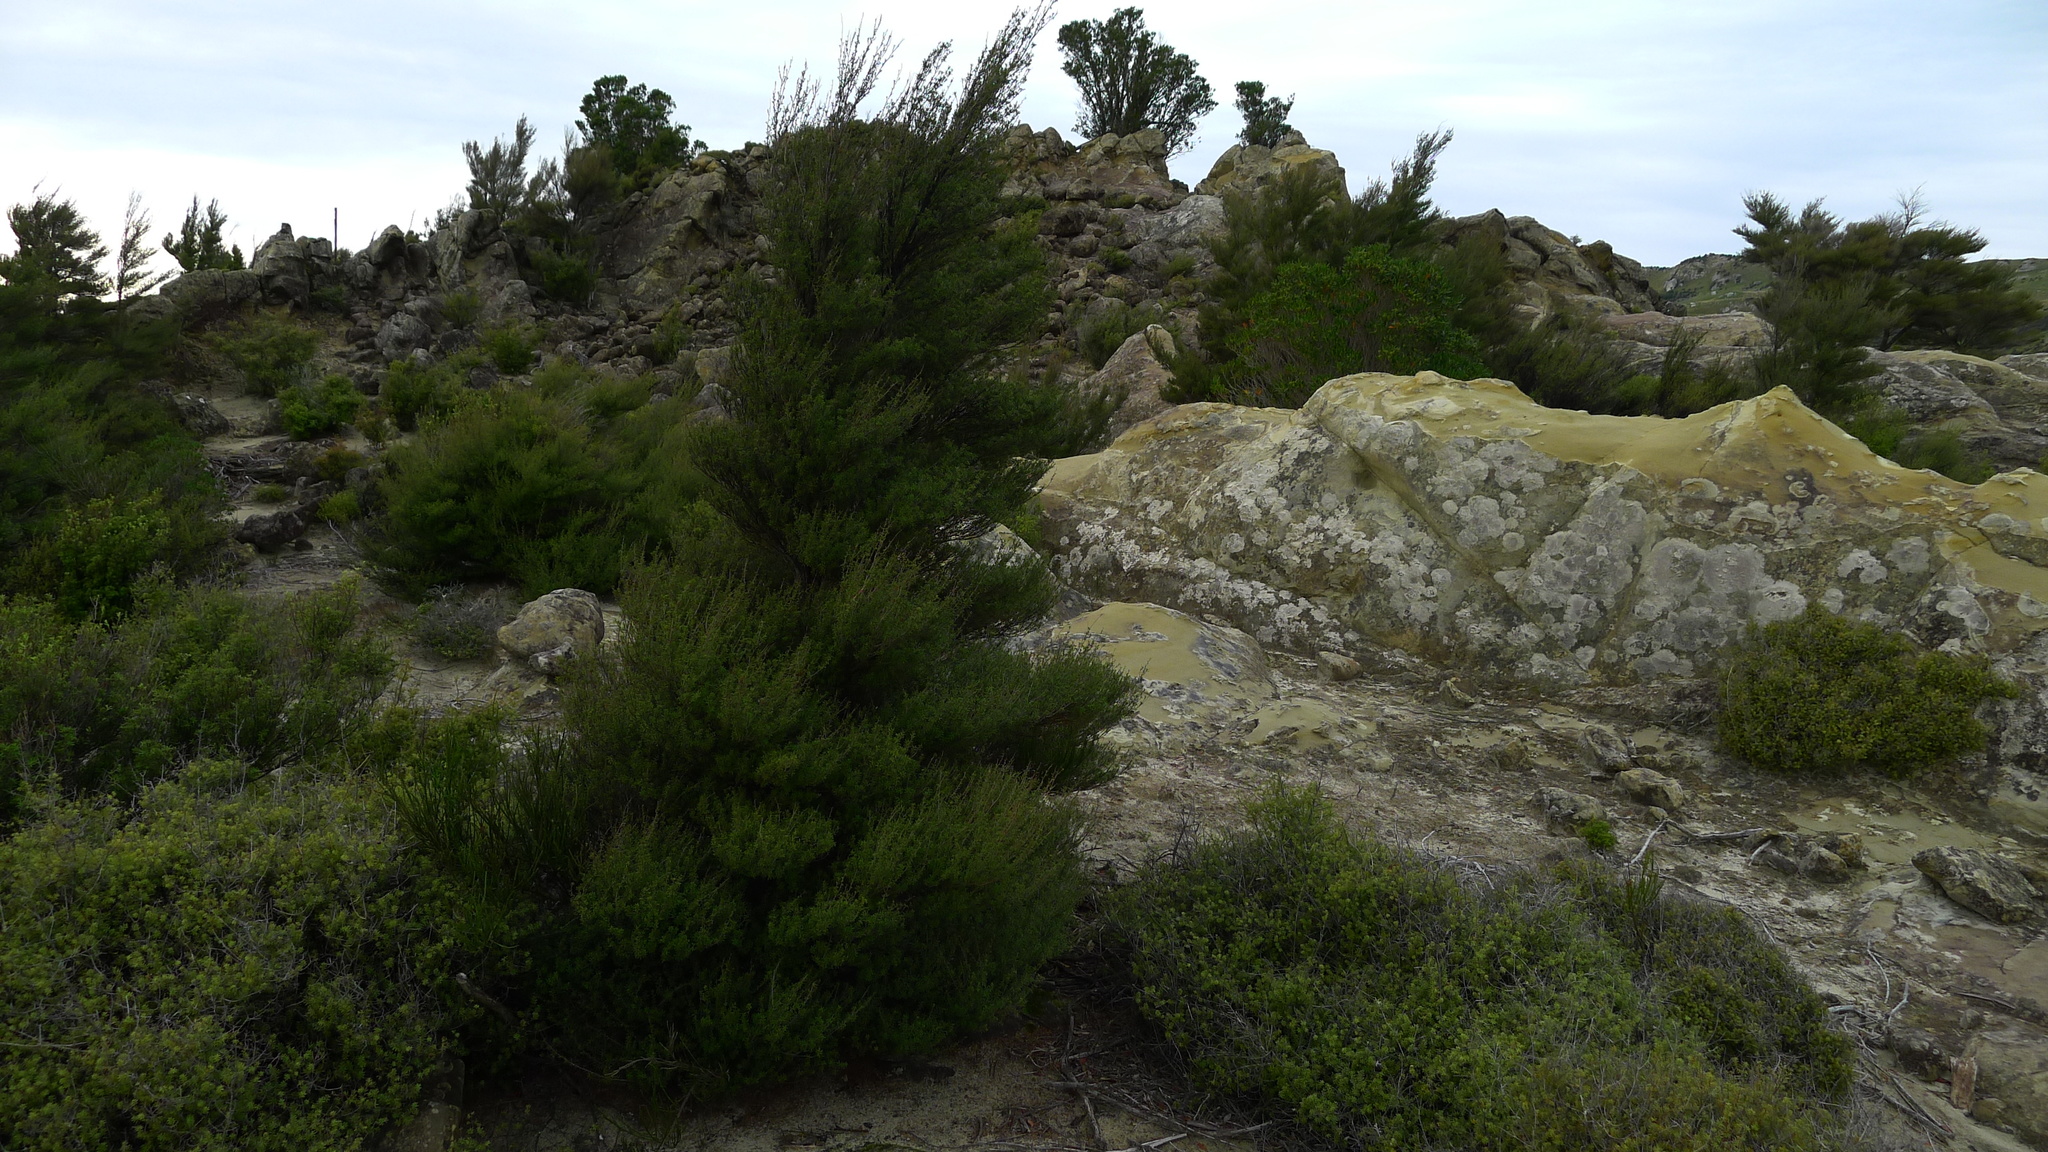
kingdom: Plantae
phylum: Tracheophyta
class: Magnoliopsida
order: Myrtales
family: Myrtaceae
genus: Kunzea
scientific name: Kunzea robusta
